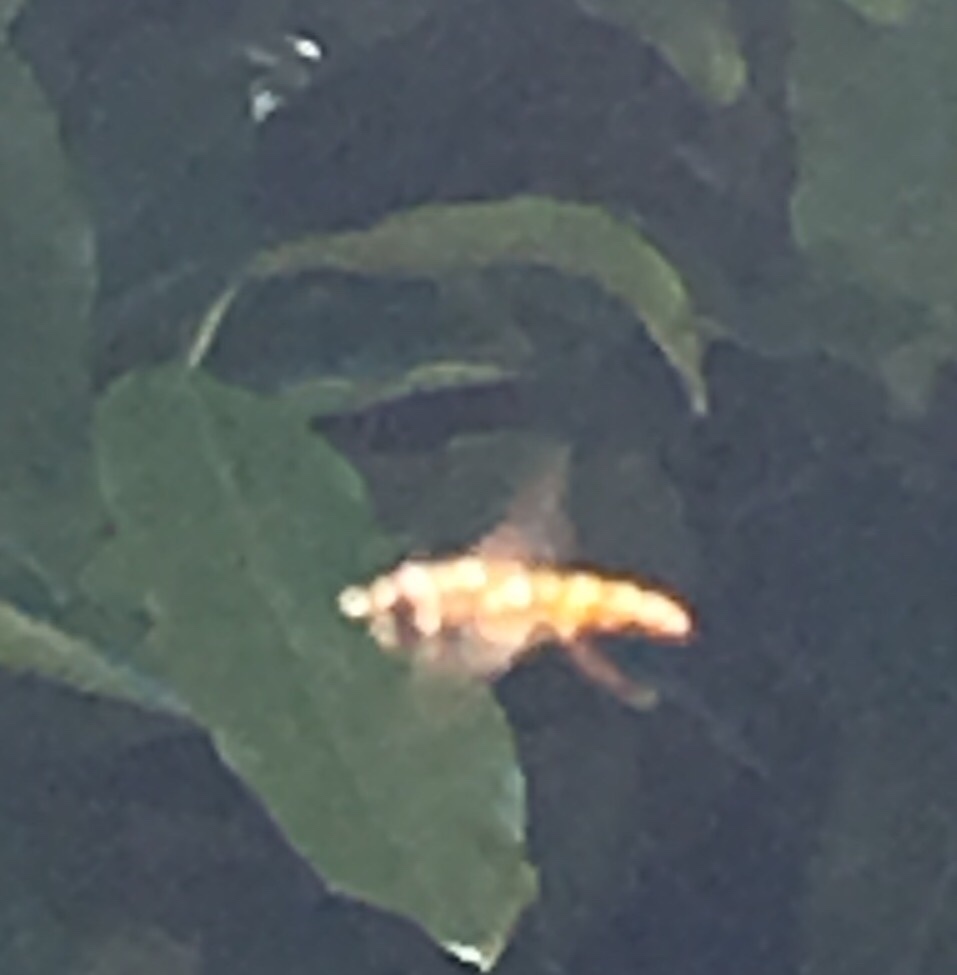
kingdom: Animalia
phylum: Arthropoda
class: Insecta
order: Diptera
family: Syrphidae
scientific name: Syrphidae
